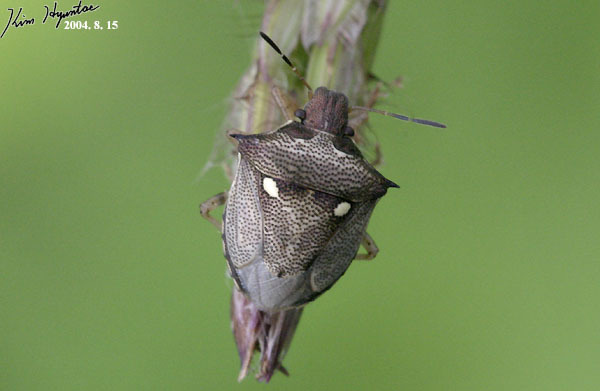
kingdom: Animalia
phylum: Arthropoda
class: Insecta
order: Hemiptera
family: Pentatomidae
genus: Eysarcoris
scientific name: Eysarcoris aeneus
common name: New forest shieldbug
